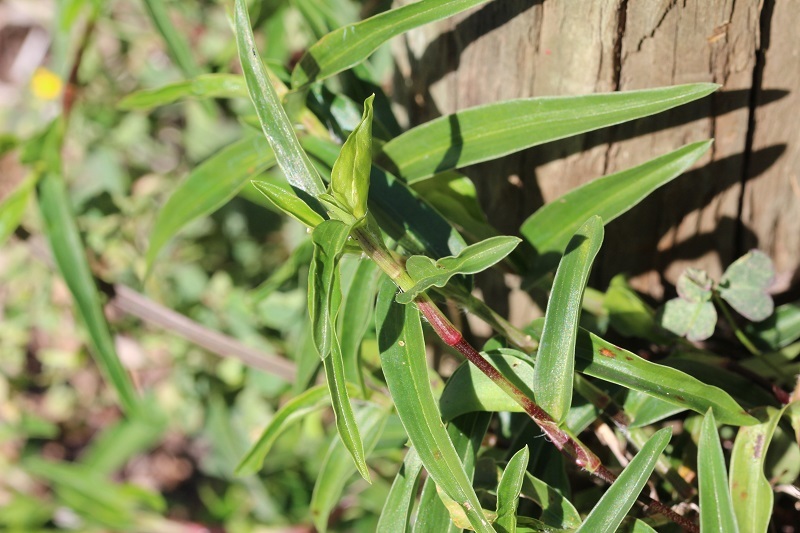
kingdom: Plantae
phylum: Tracheophyta
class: Liliopsida
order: Commelinales
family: Commelinaceae
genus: Commelina
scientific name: Commelina africana
